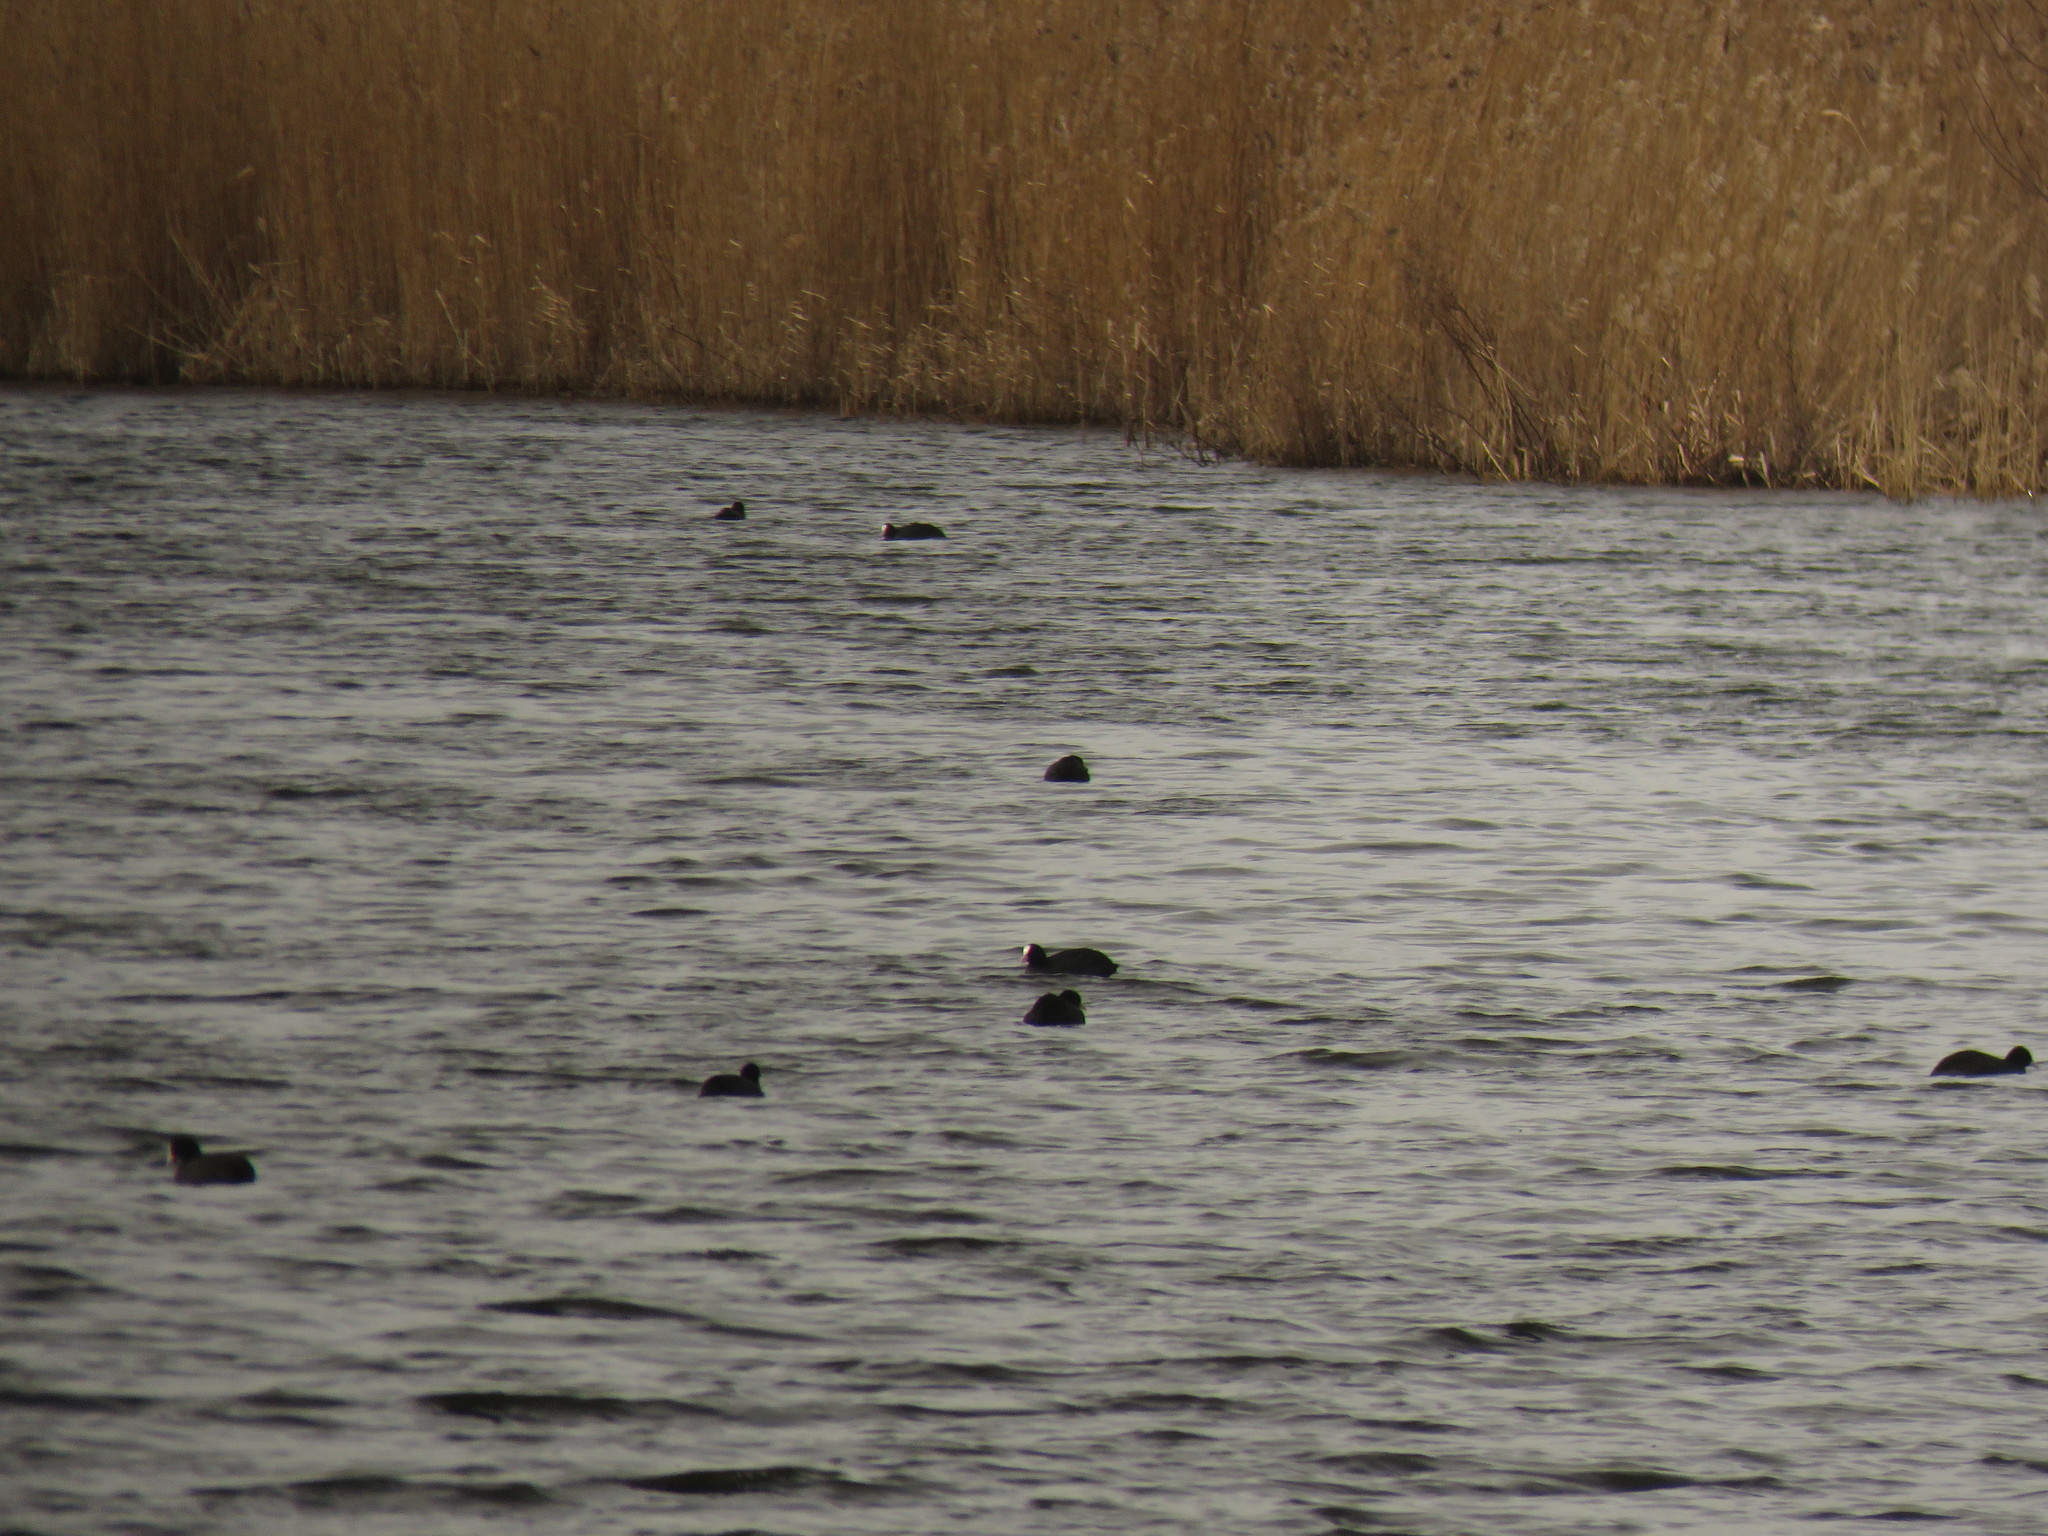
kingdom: Animalia
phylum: Chordata
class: Aves
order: Gruiformes
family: Rallidae
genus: Fulica
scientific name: Fulica atra
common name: Eurasian coot
